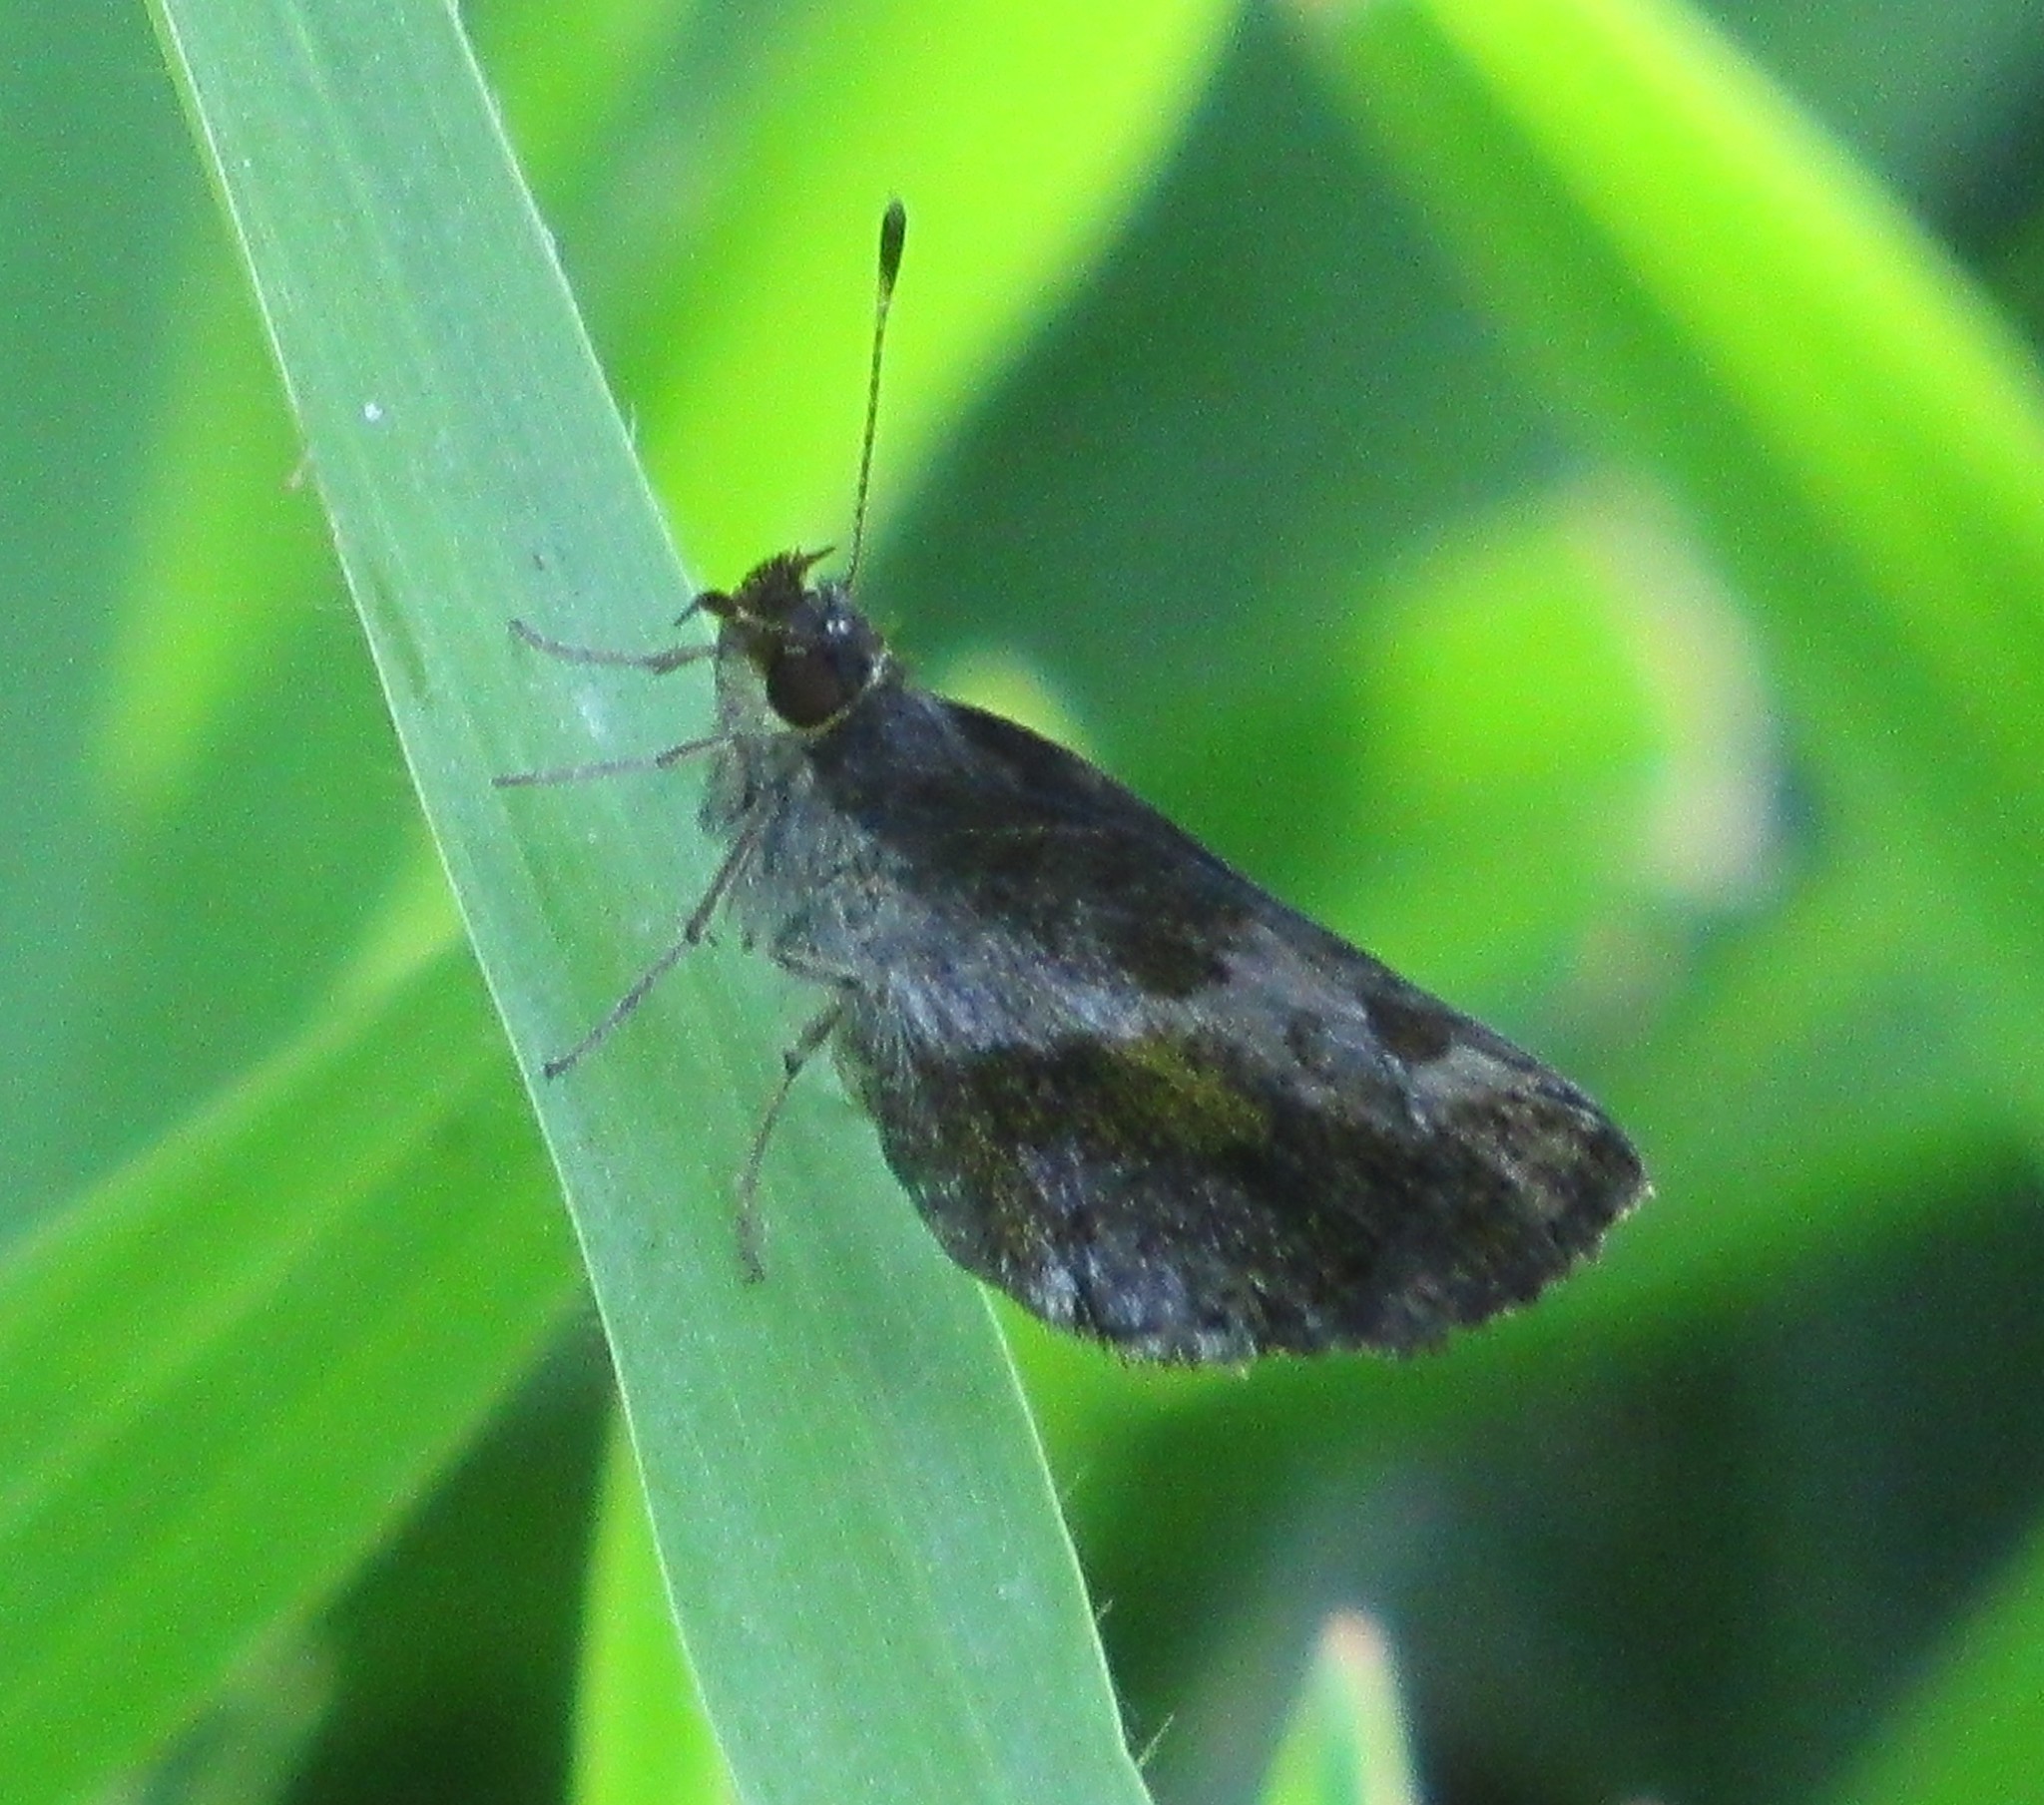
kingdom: Animalia
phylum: Arthropoda
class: Insecta
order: Lepidoptera
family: Hesperiidae
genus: Callimormus
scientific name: Callimormus
